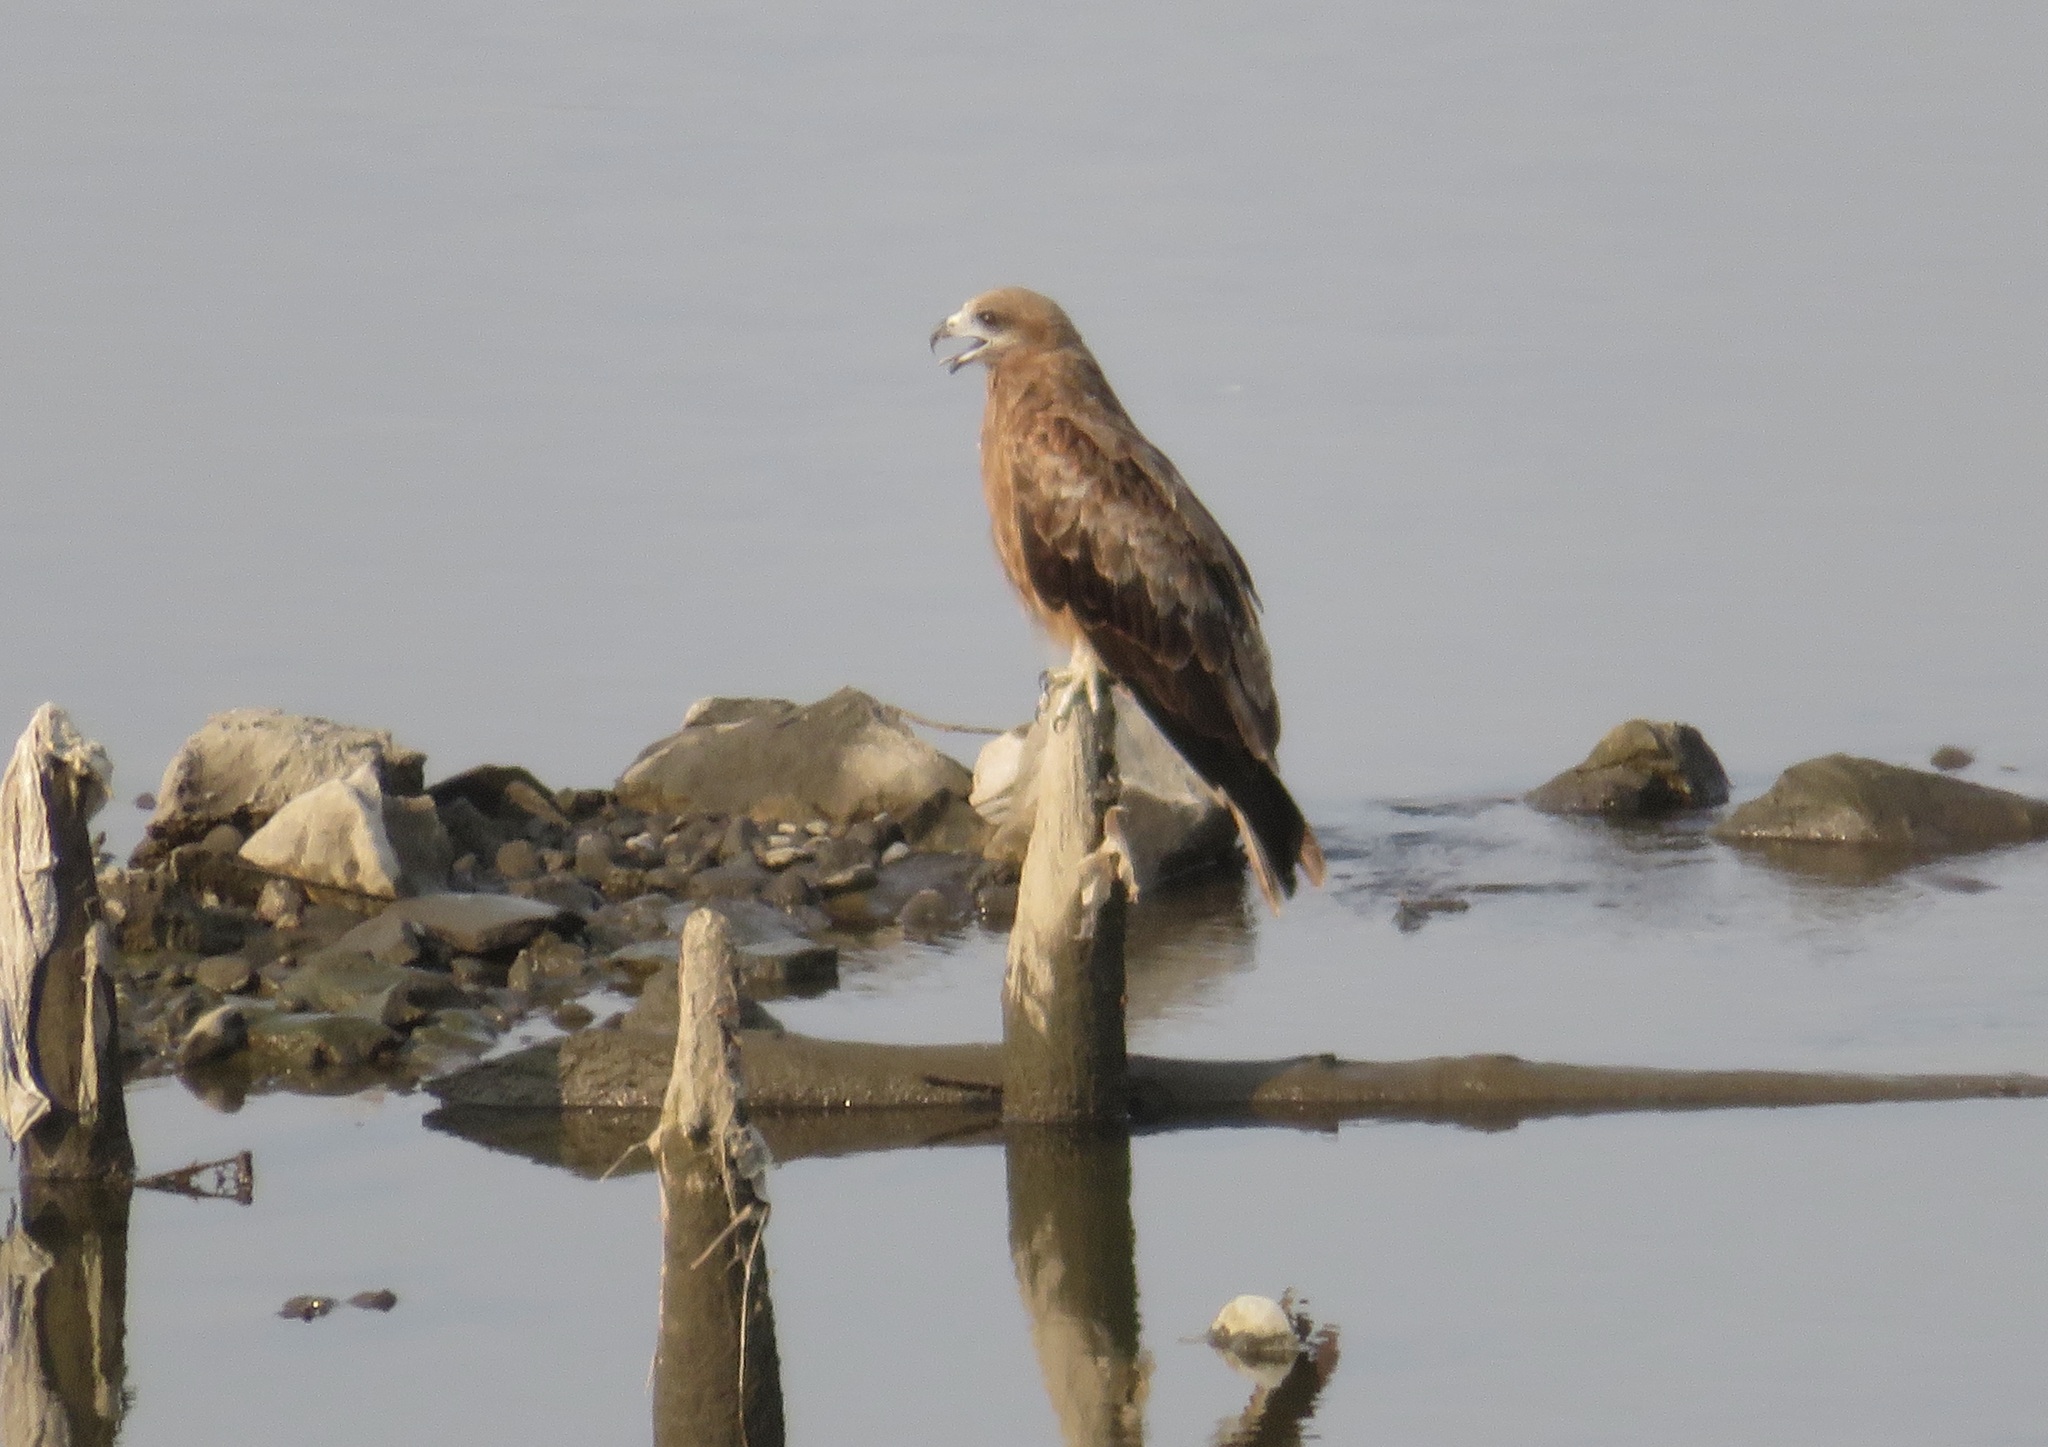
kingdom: Animalia
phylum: Chordata
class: Aves
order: Accipitriformes
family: Accipitridae
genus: Milvus
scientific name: Milvus migrans
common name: Black kite
